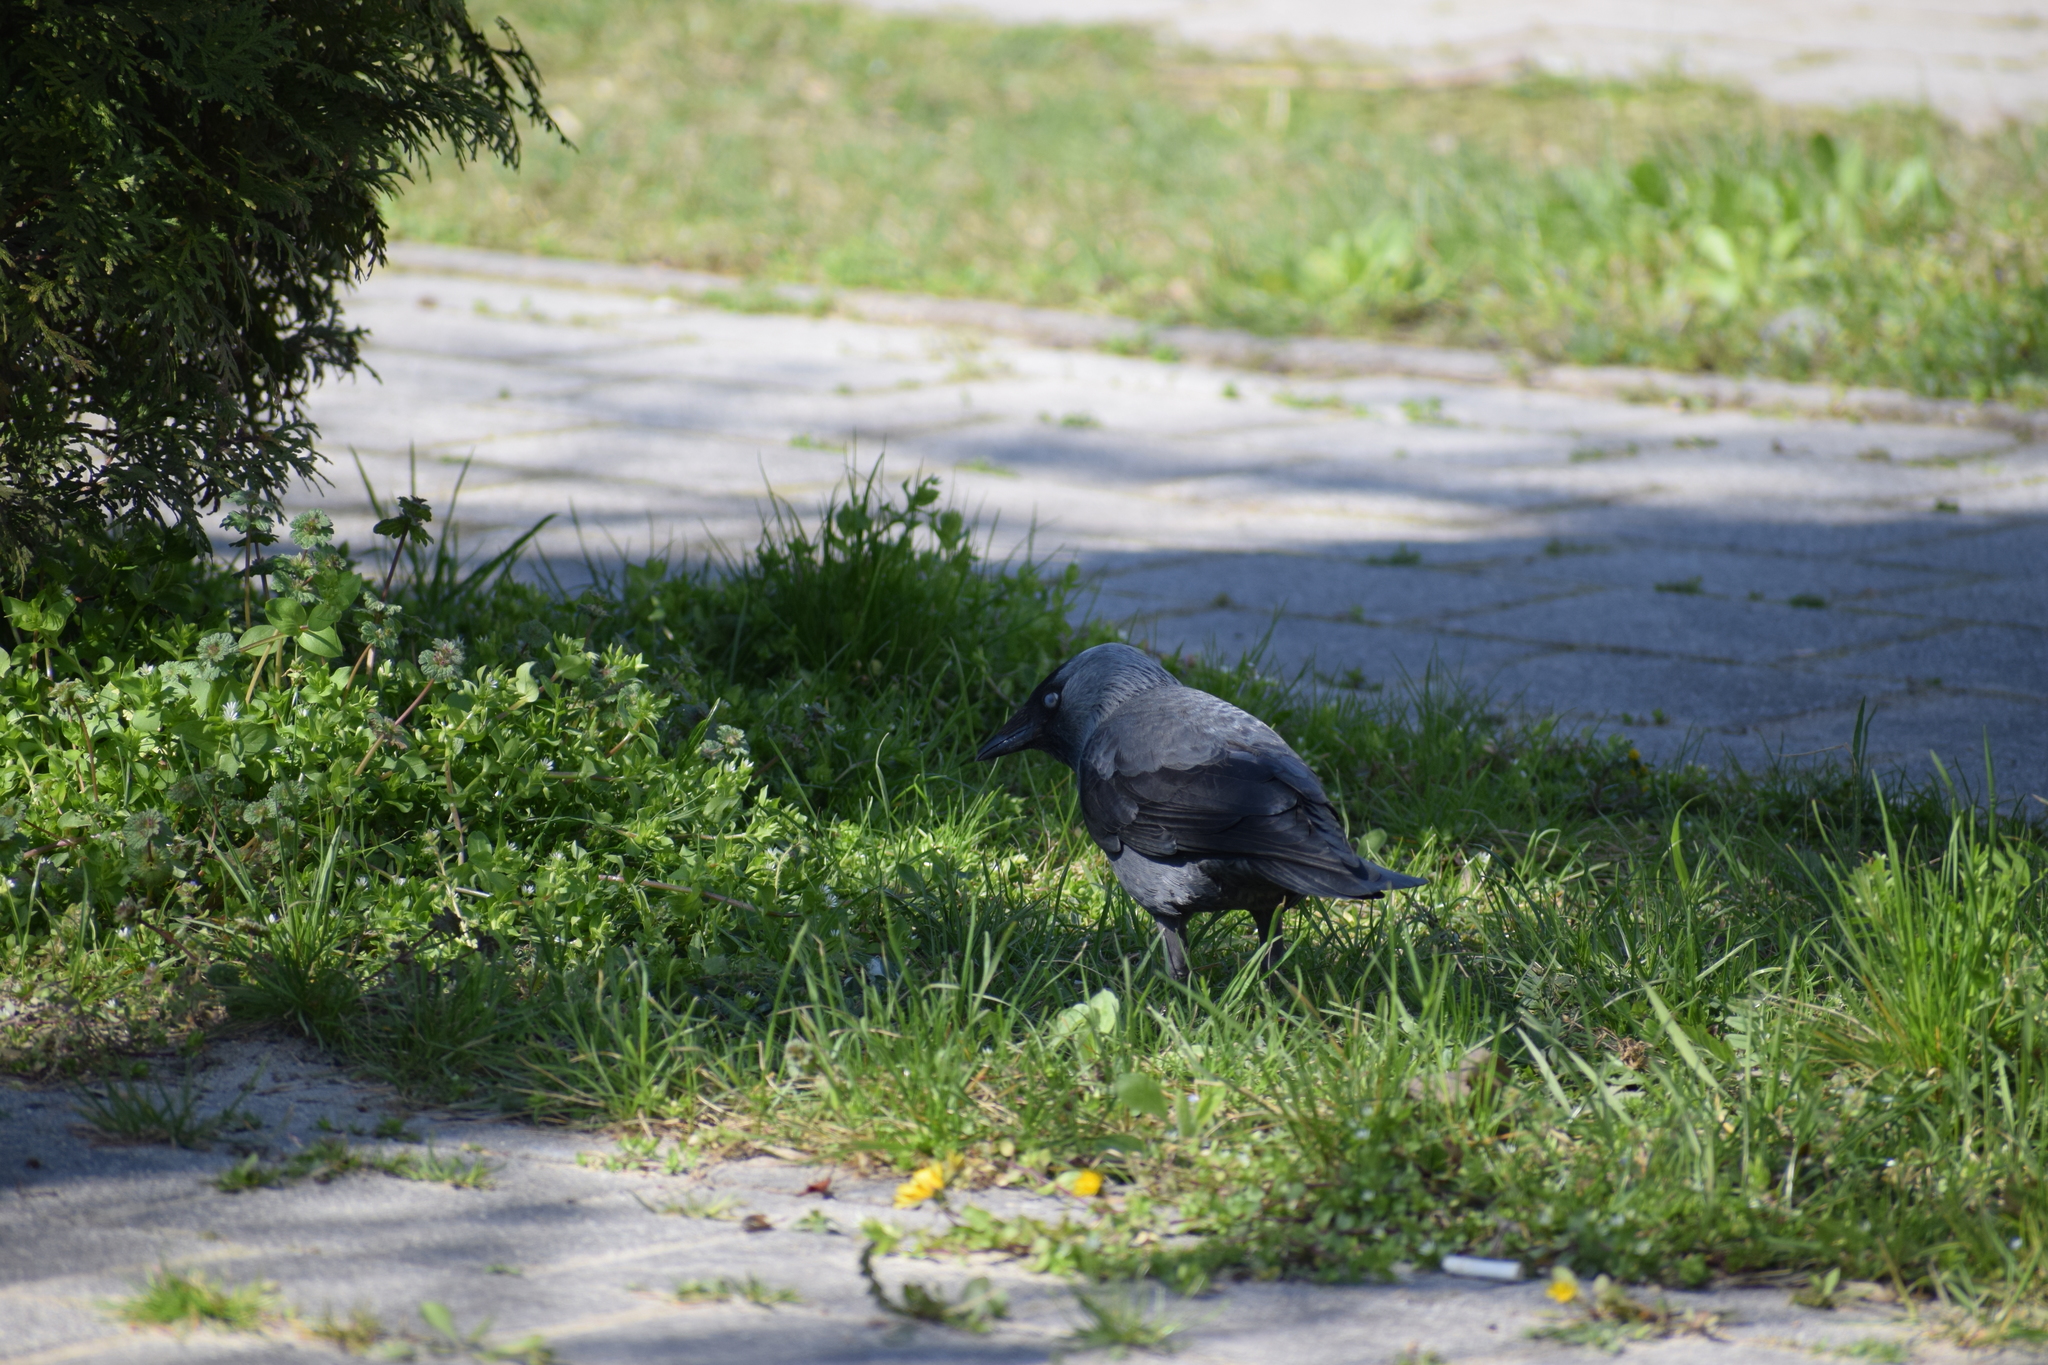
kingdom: Animalia
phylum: Chordata
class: Aves
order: Passeriformes
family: Corvidae
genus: Coloeus
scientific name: Coloeus monedula
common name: Western jackdaw
